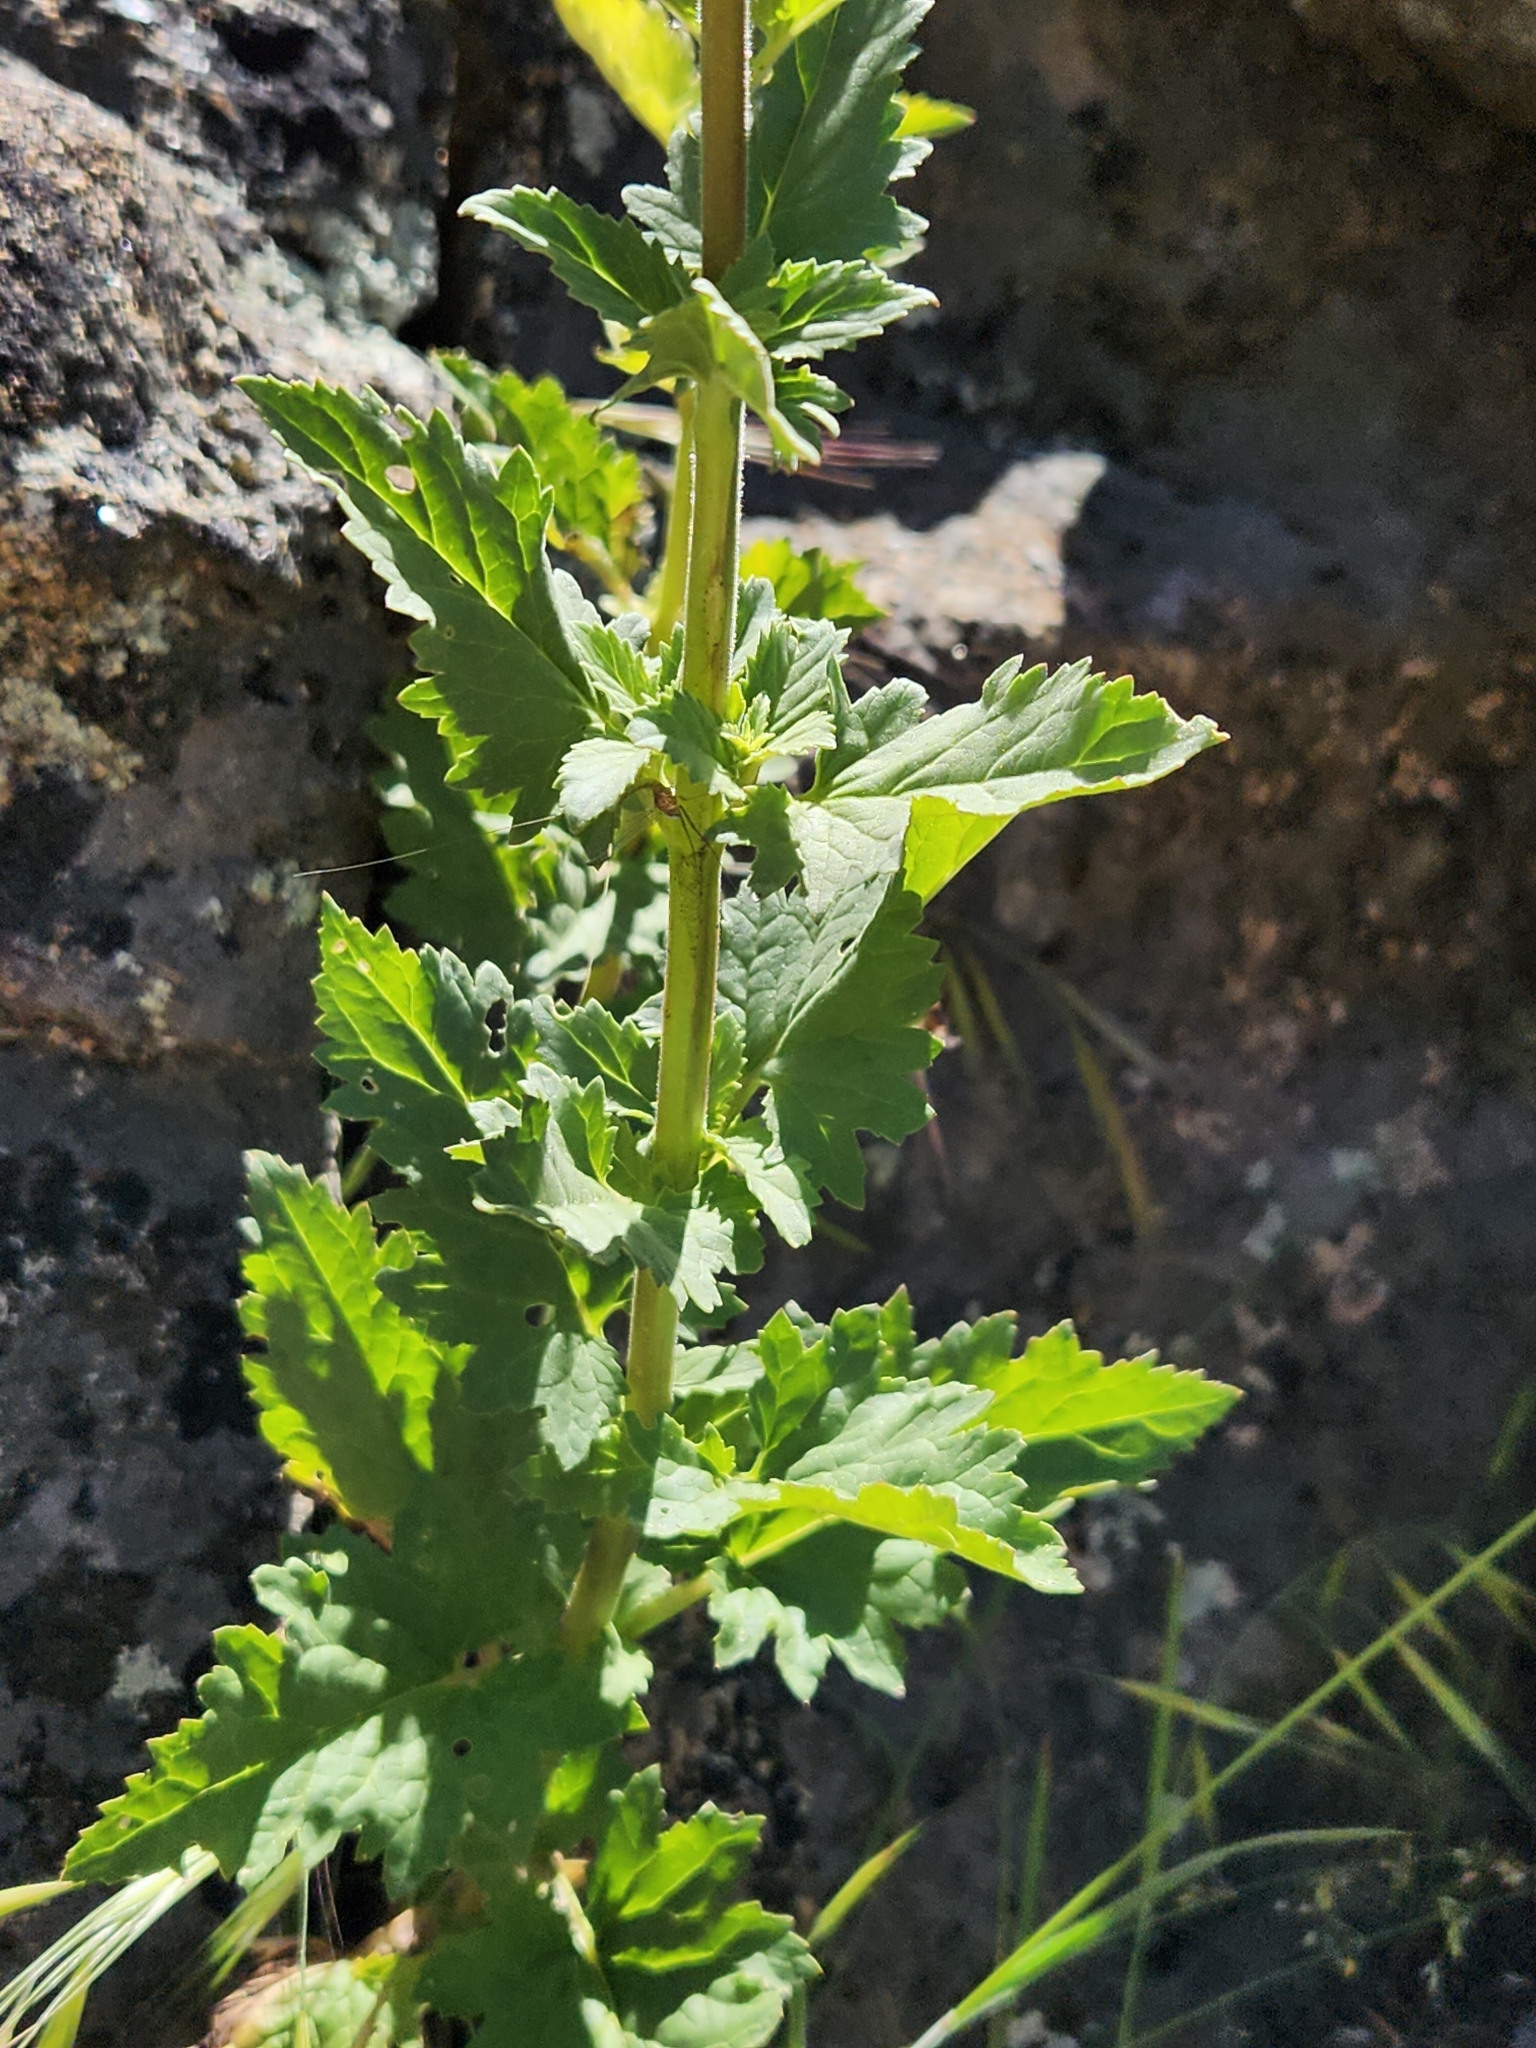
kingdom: Plantae
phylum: Tracheophyta
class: Magnoliopsida
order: Lamiales
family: Scrophulariaceae
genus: Scrophularia
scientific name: Scrophularia californica
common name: California figwort
